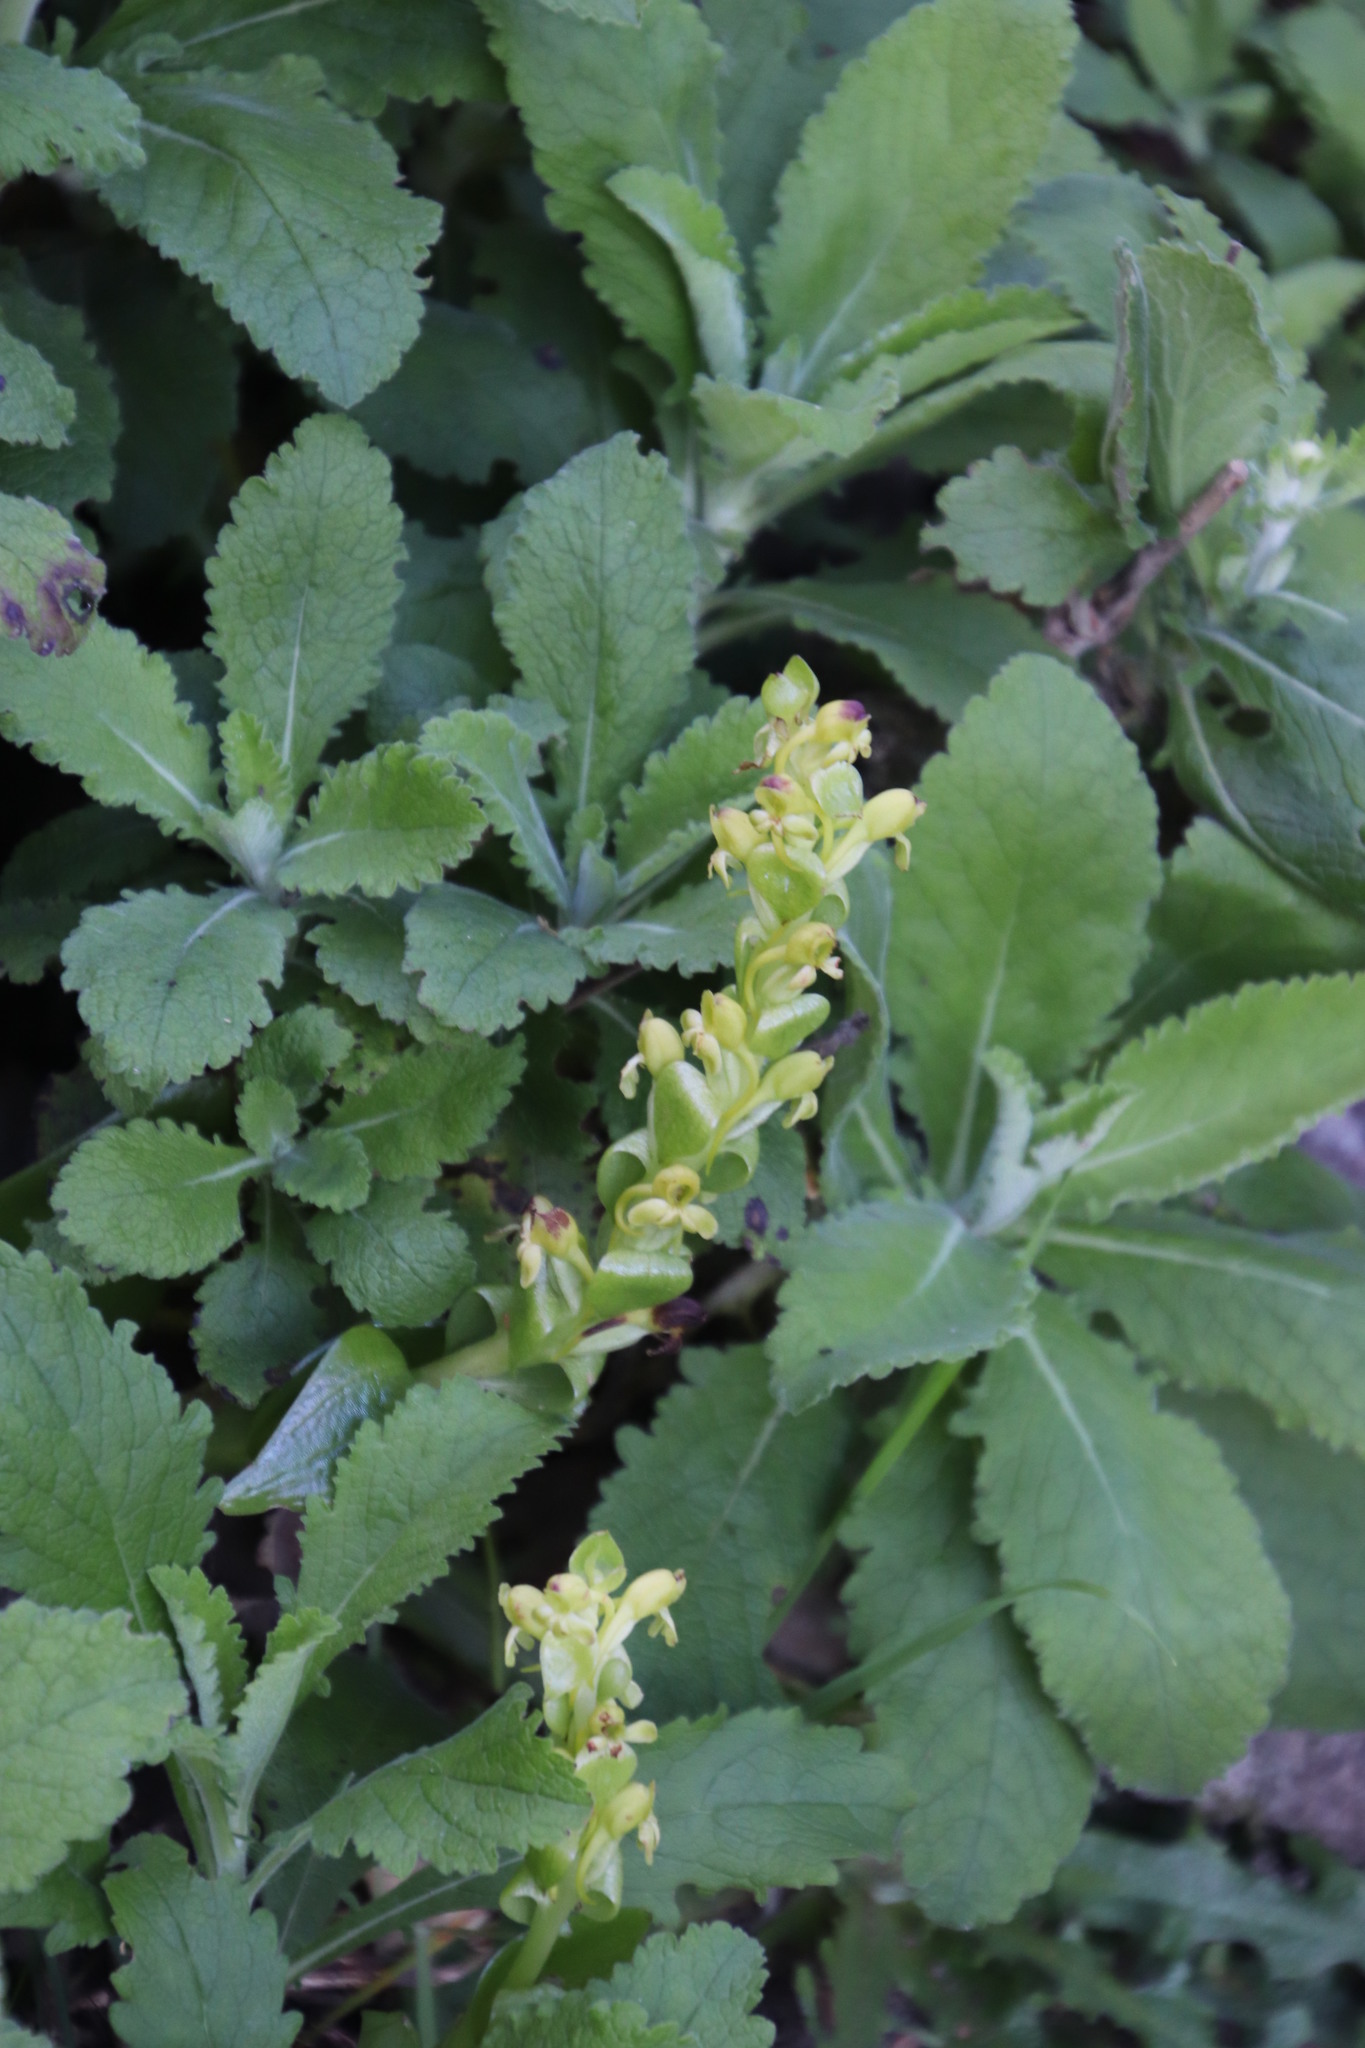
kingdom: Plantae
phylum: Tracheophyta
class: Liliopsida
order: Asparagales
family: Orchidaceae
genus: Satyrium
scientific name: Satyrium odorum
